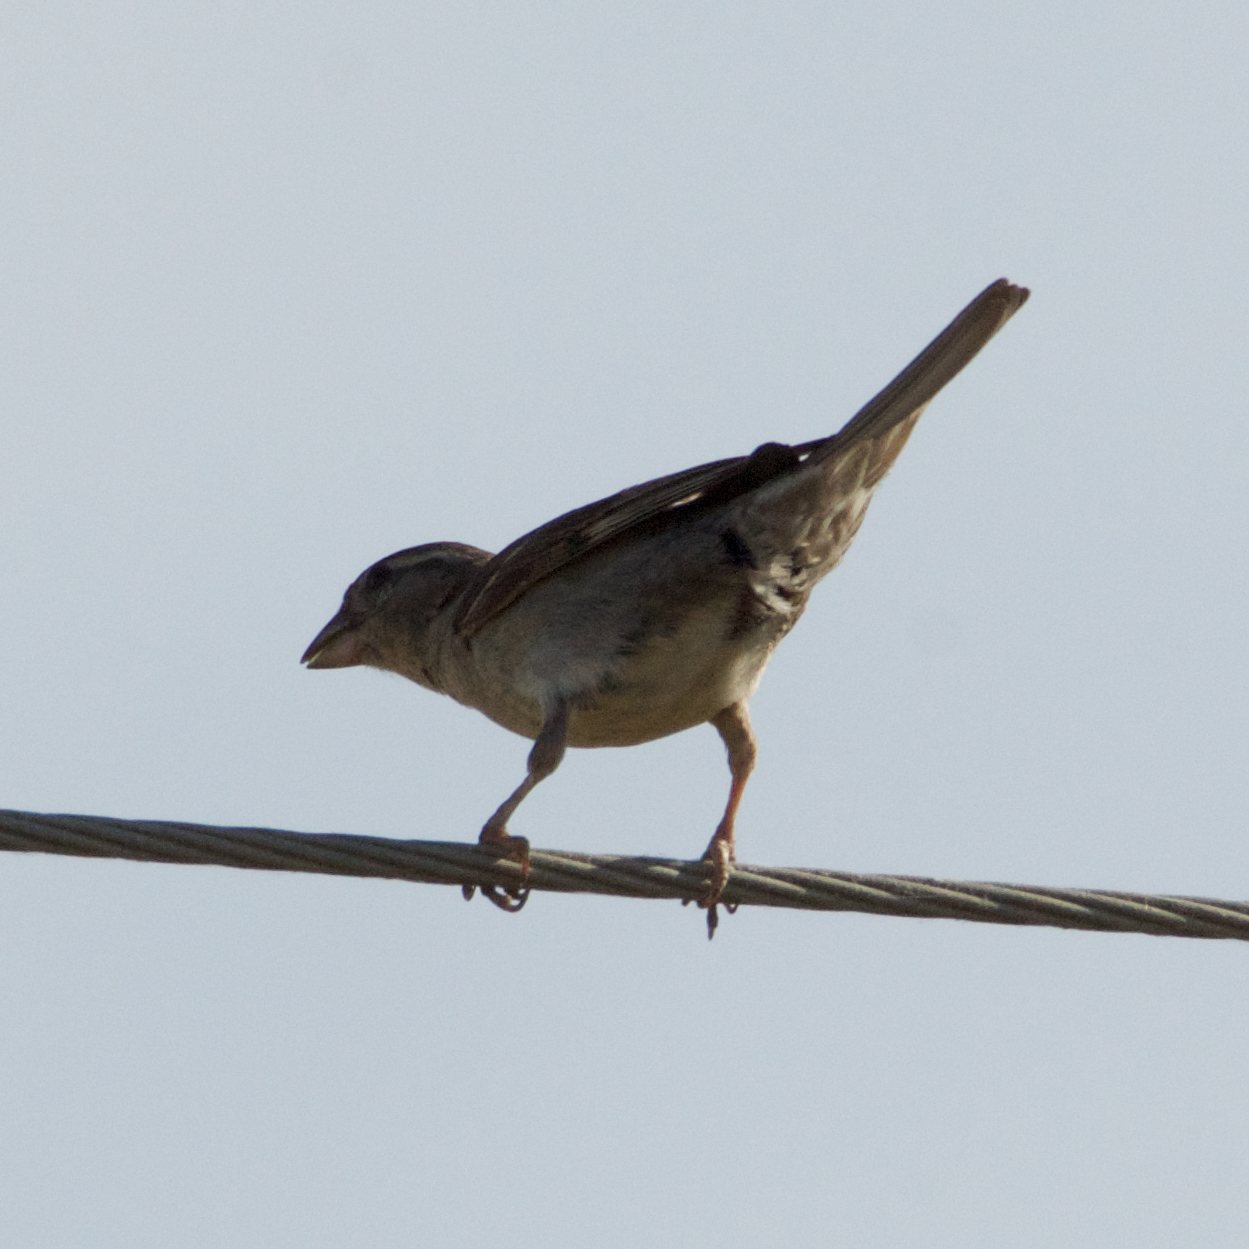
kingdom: Animalia
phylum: Chordata
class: Aves
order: Passeriformes
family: Passeridae
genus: Passer
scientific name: Passer domesticus
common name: House sparrow
